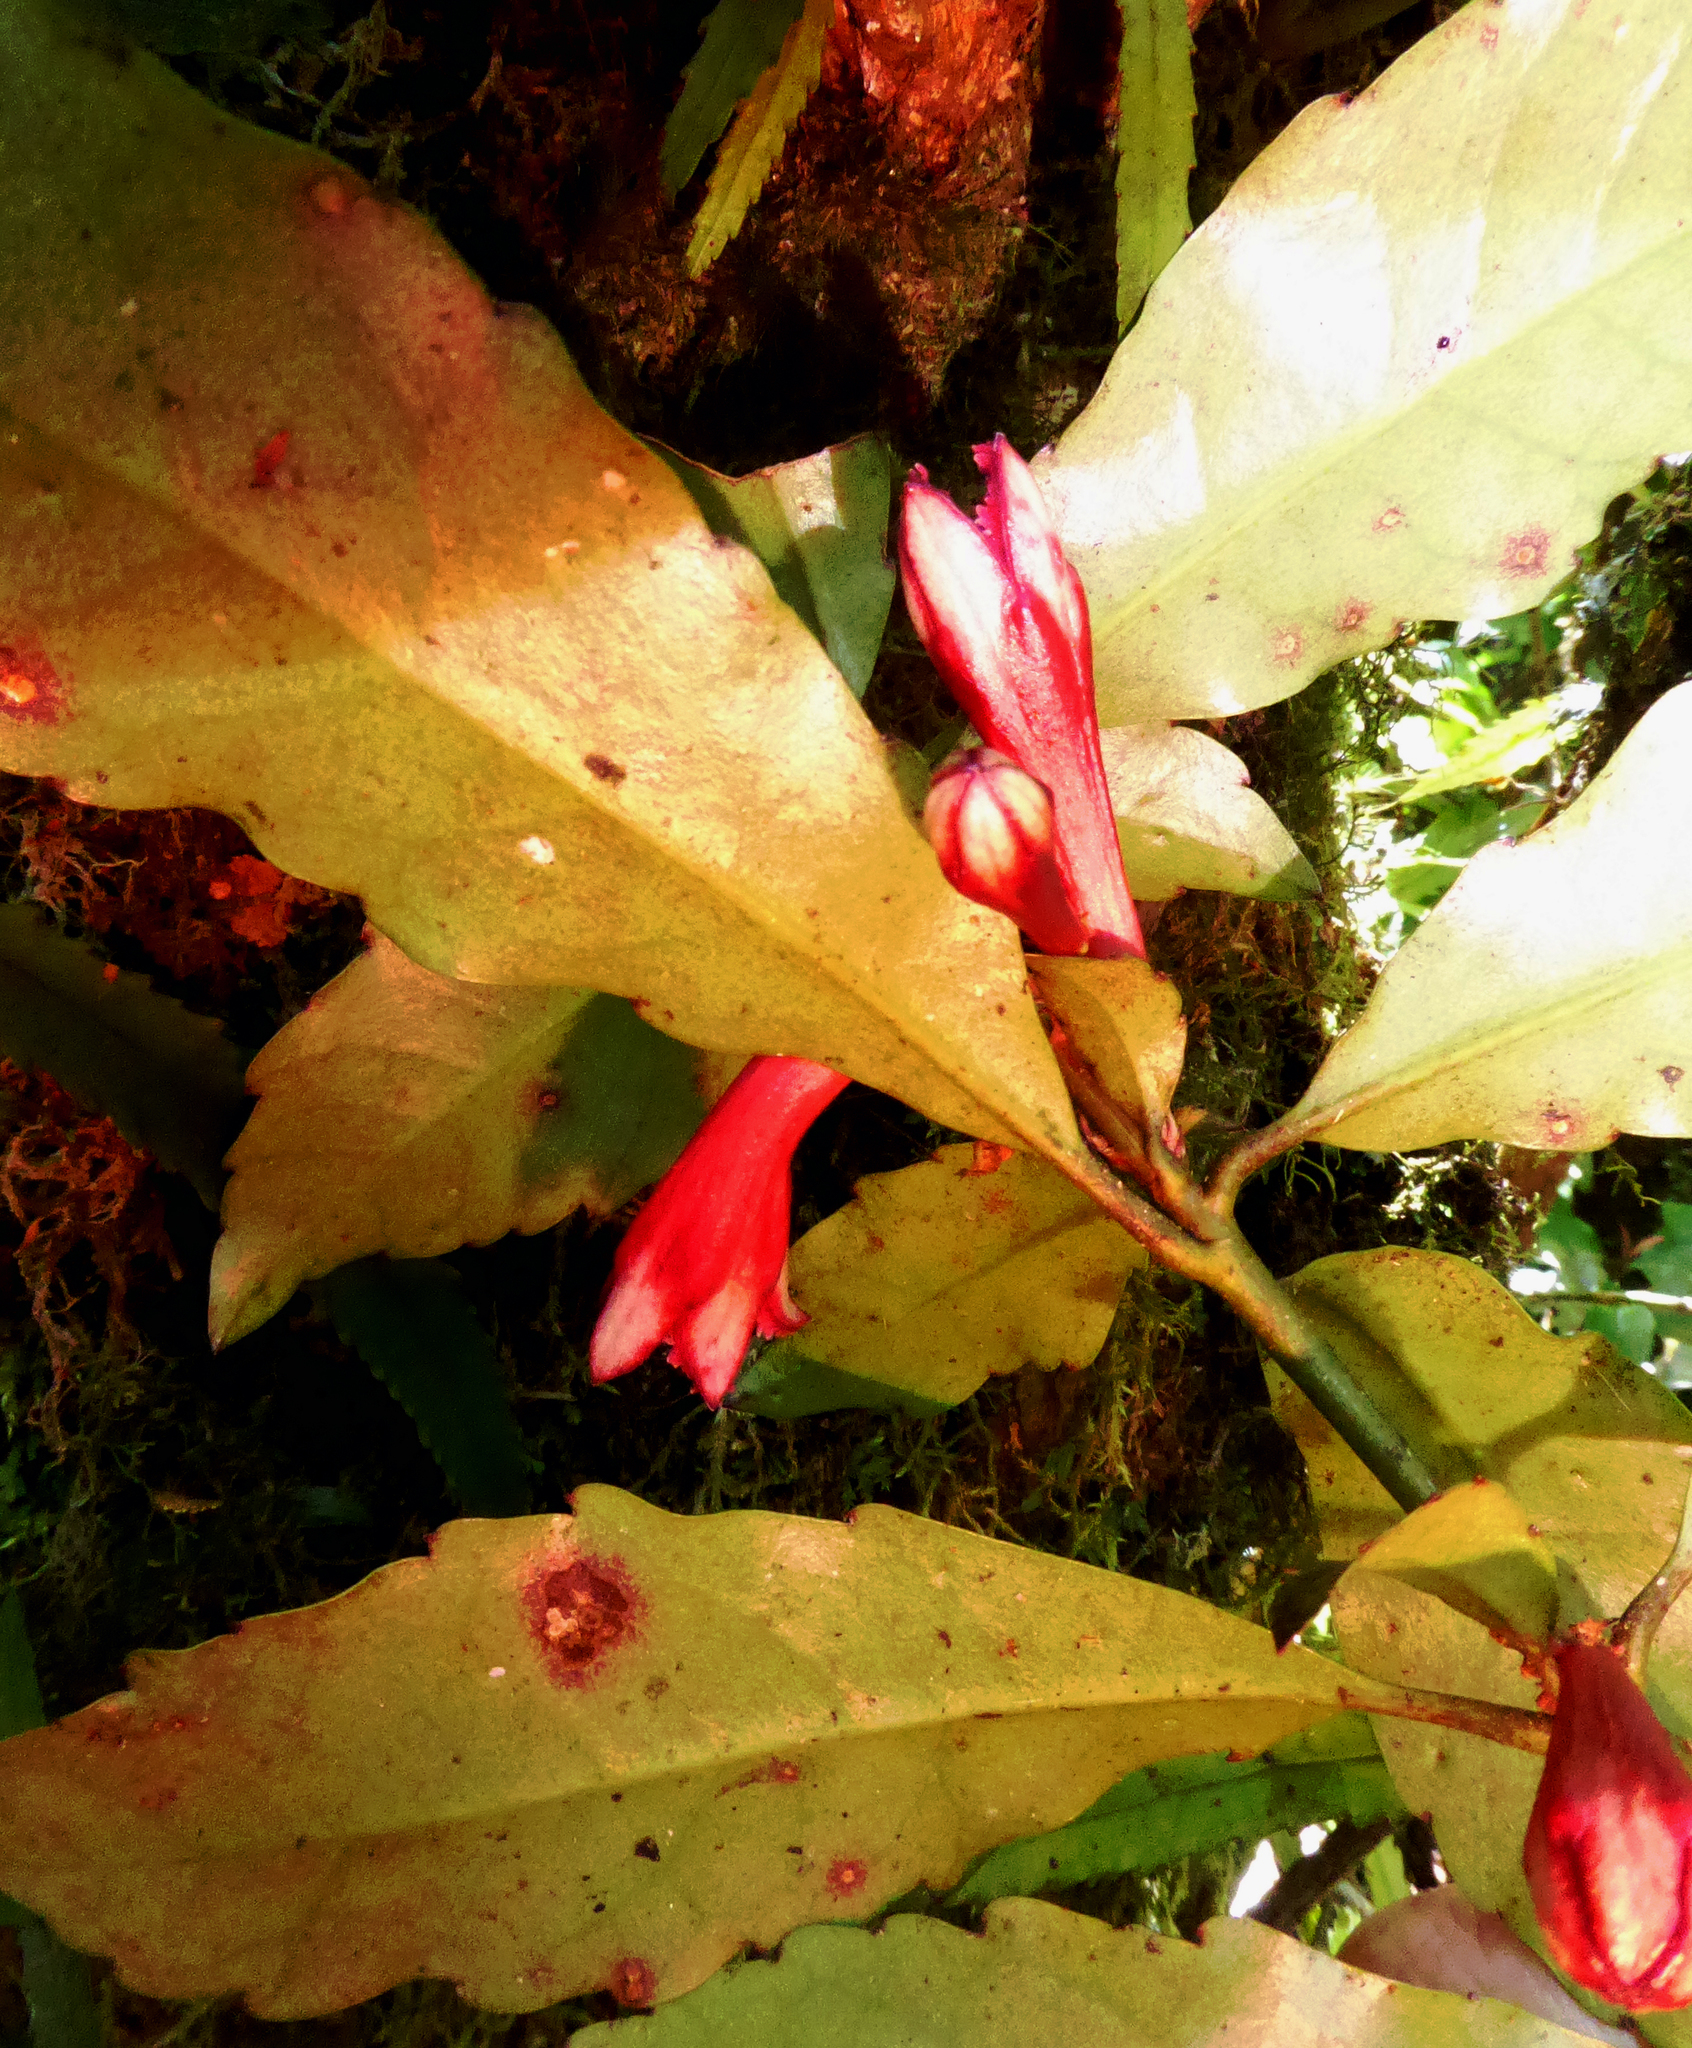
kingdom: Plantae
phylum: Tracheophyta
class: Magnoliopsida
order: Asterales
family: Alseuosmiaceae
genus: Alseuosmia
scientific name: Alseuosmia macrophylla
